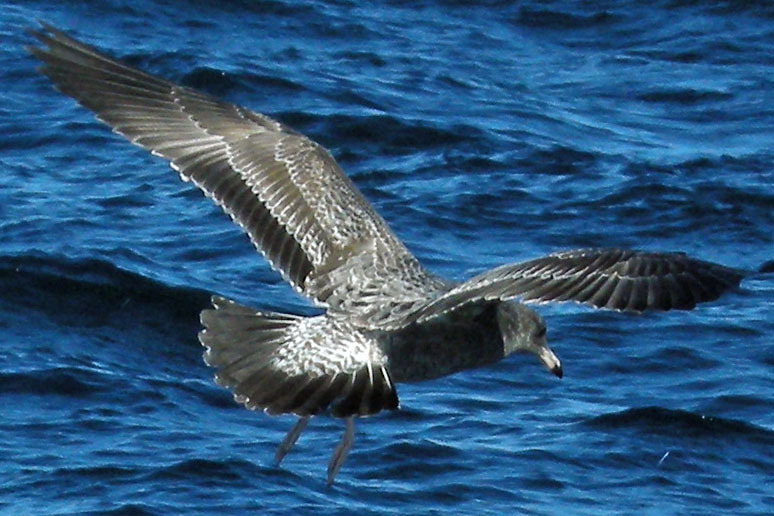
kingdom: Animalia
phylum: Chordata
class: Aves
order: Charadriiformes
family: Laridae
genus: Larus
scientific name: Larus californicus
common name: California gull
